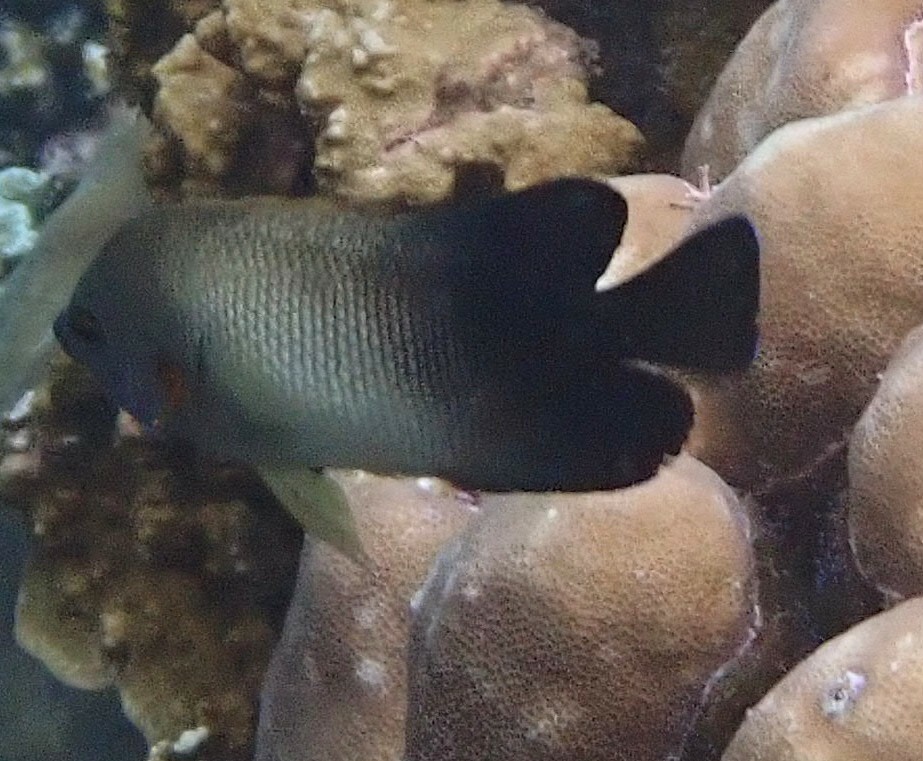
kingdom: Animalia
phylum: Chordata
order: Perciformes
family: Pomacanthidae
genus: Centropyge
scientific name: Centropyge vrolikii
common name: Pearlscale angelfish
